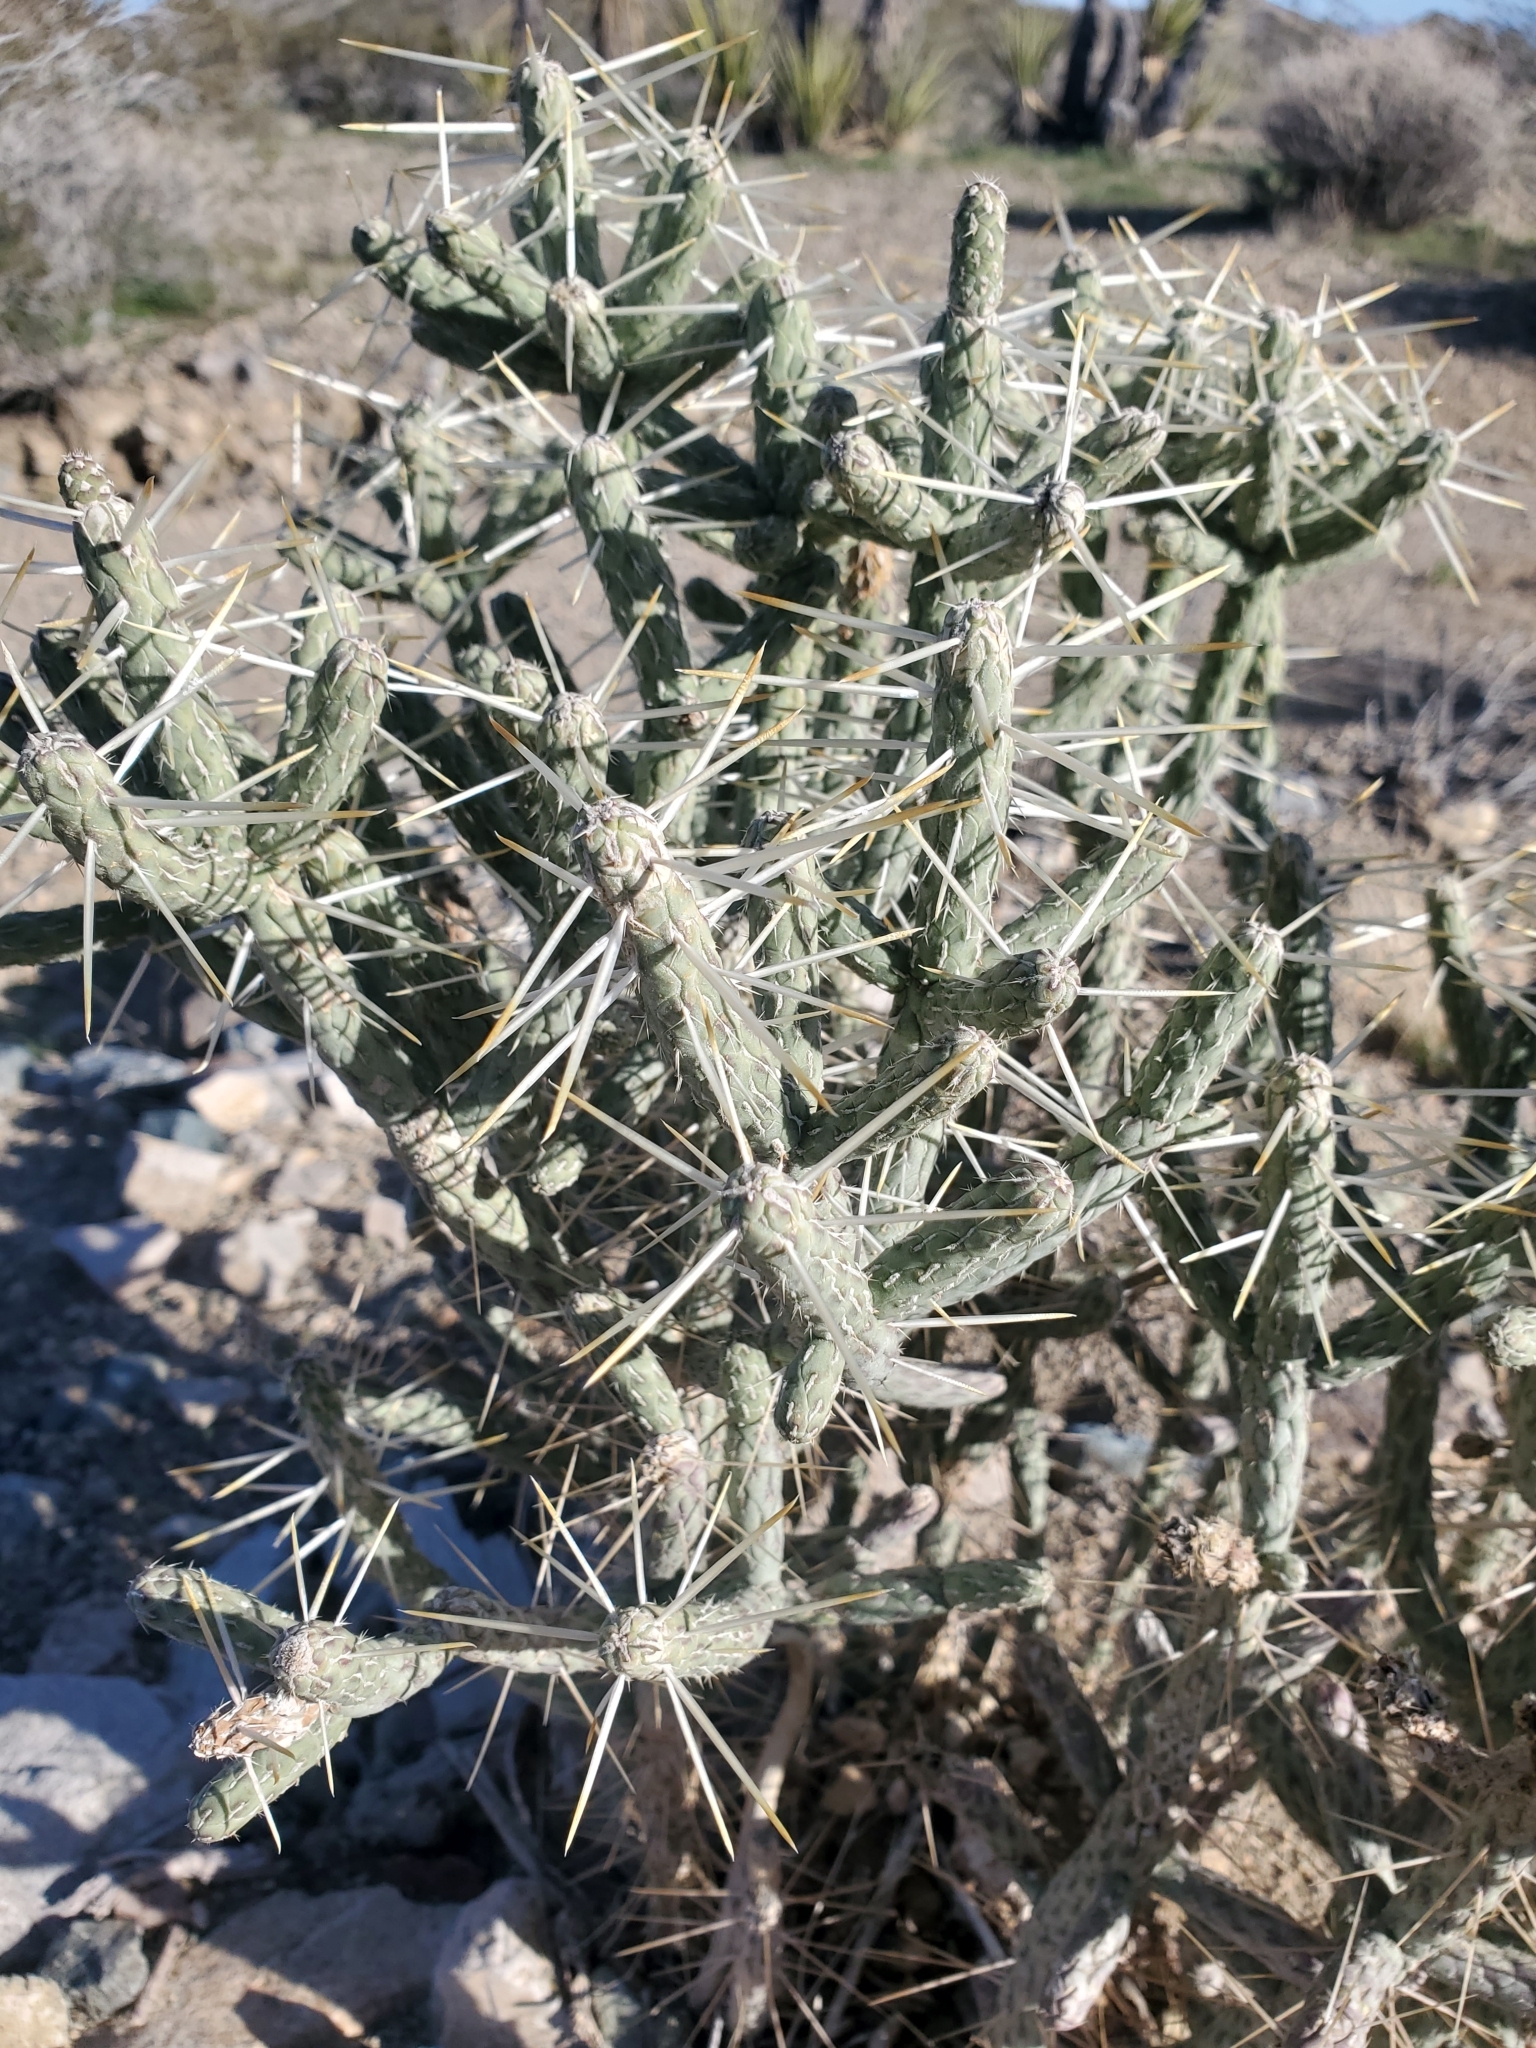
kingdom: Plantae
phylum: Tracheophyta
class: Magnoliopsida
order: Caryophyllales
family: Cactaceae
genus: Cylindropuntia
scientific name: Cylindropuntia ramosissima
